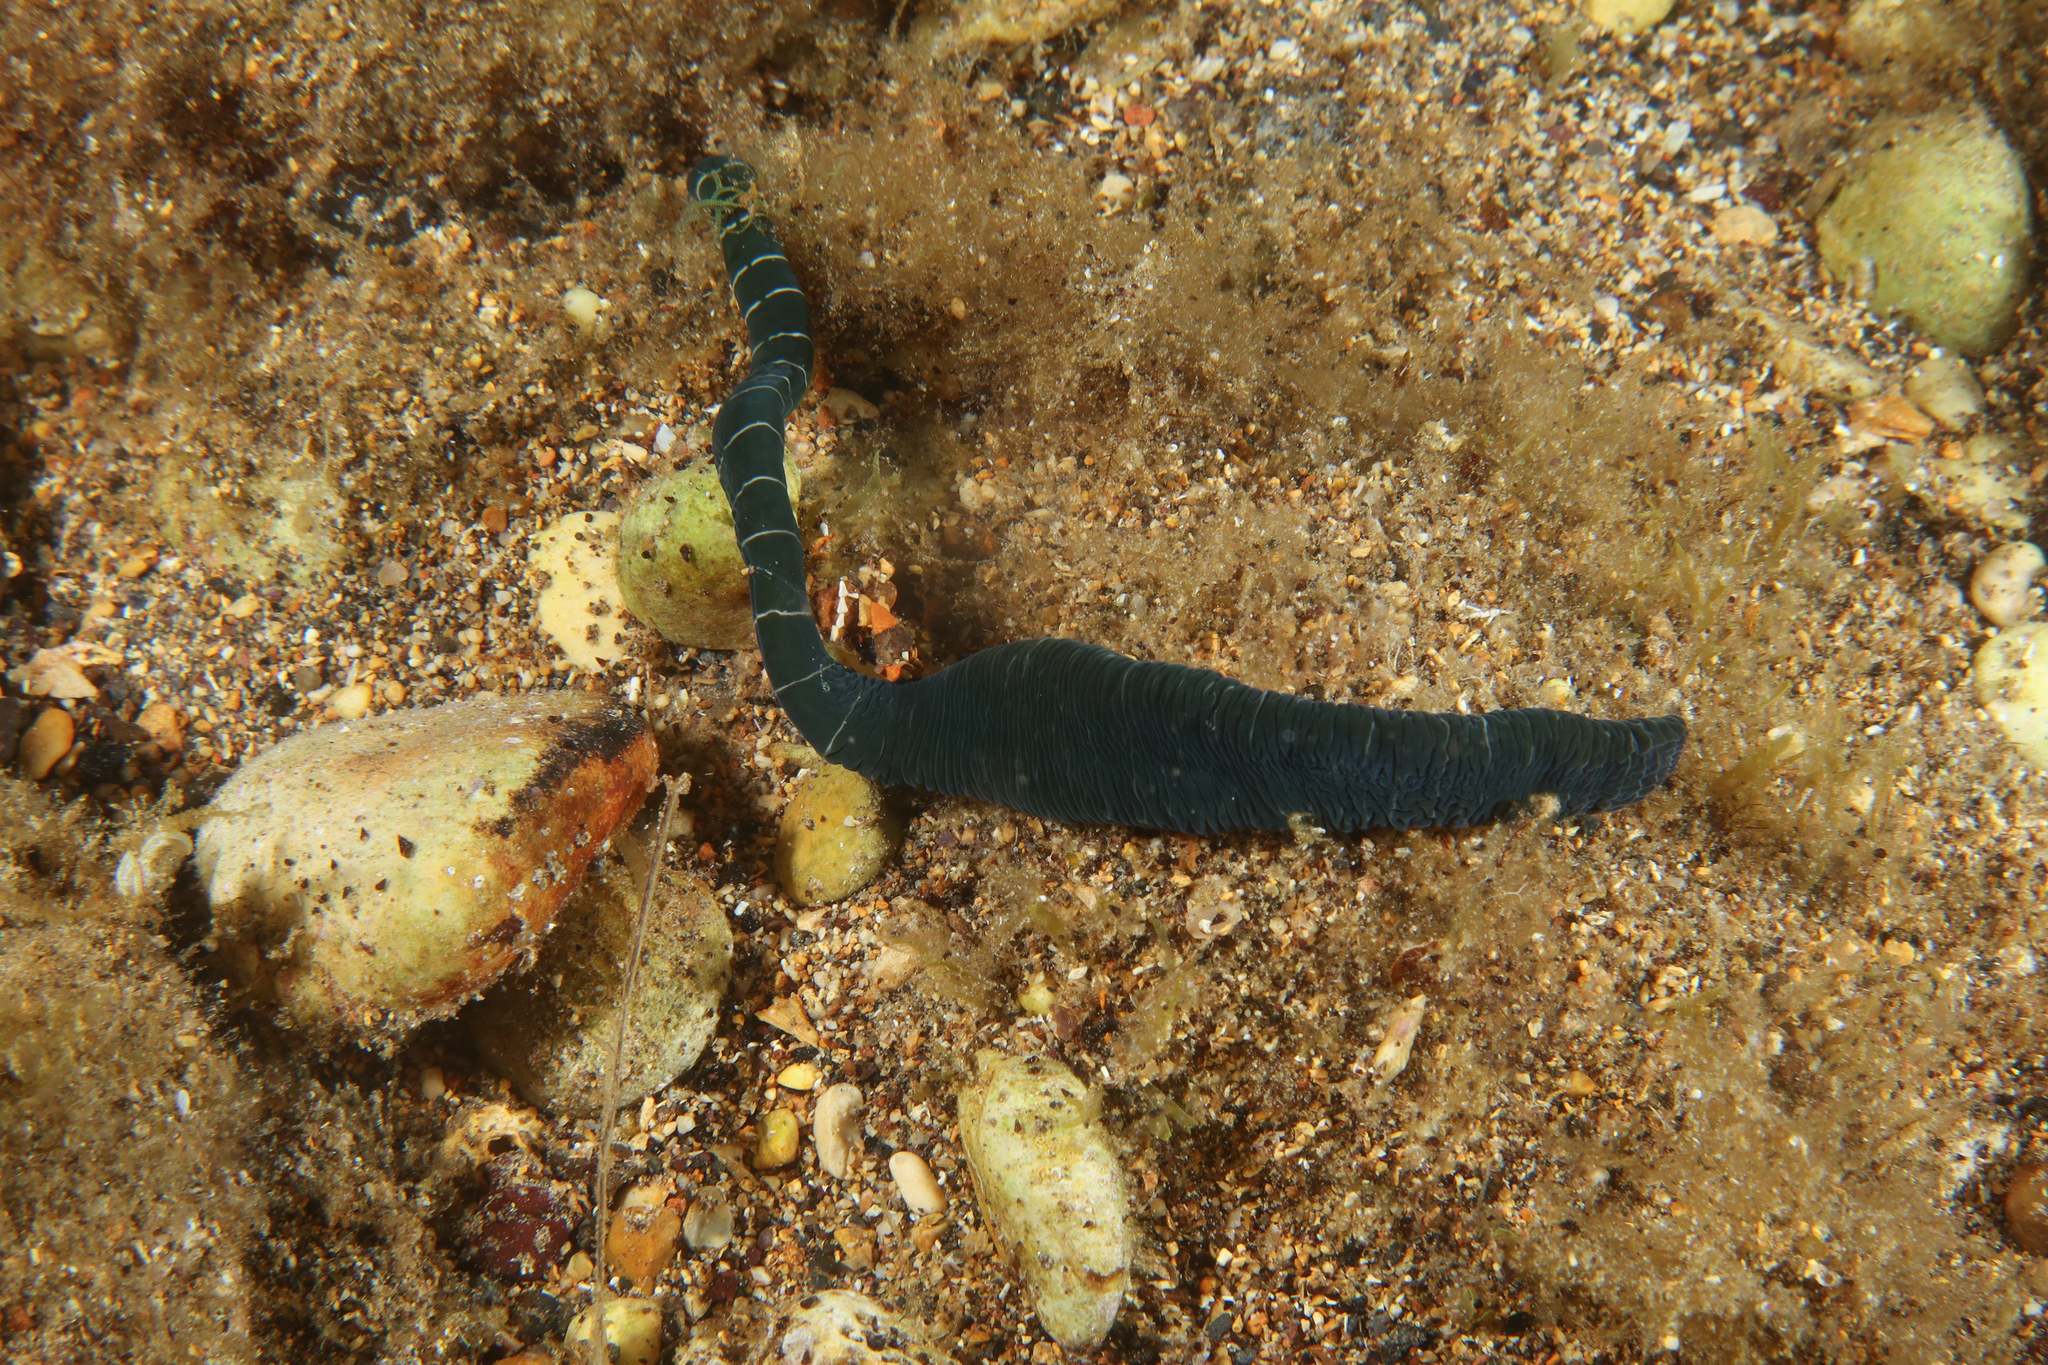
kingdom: Animalia
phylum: Nemertea
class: Pilidiophora
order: Heteronemertea
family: Lineidae
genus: Notospermus
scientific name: Notospermus geniculatus
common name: Banded bootlace
